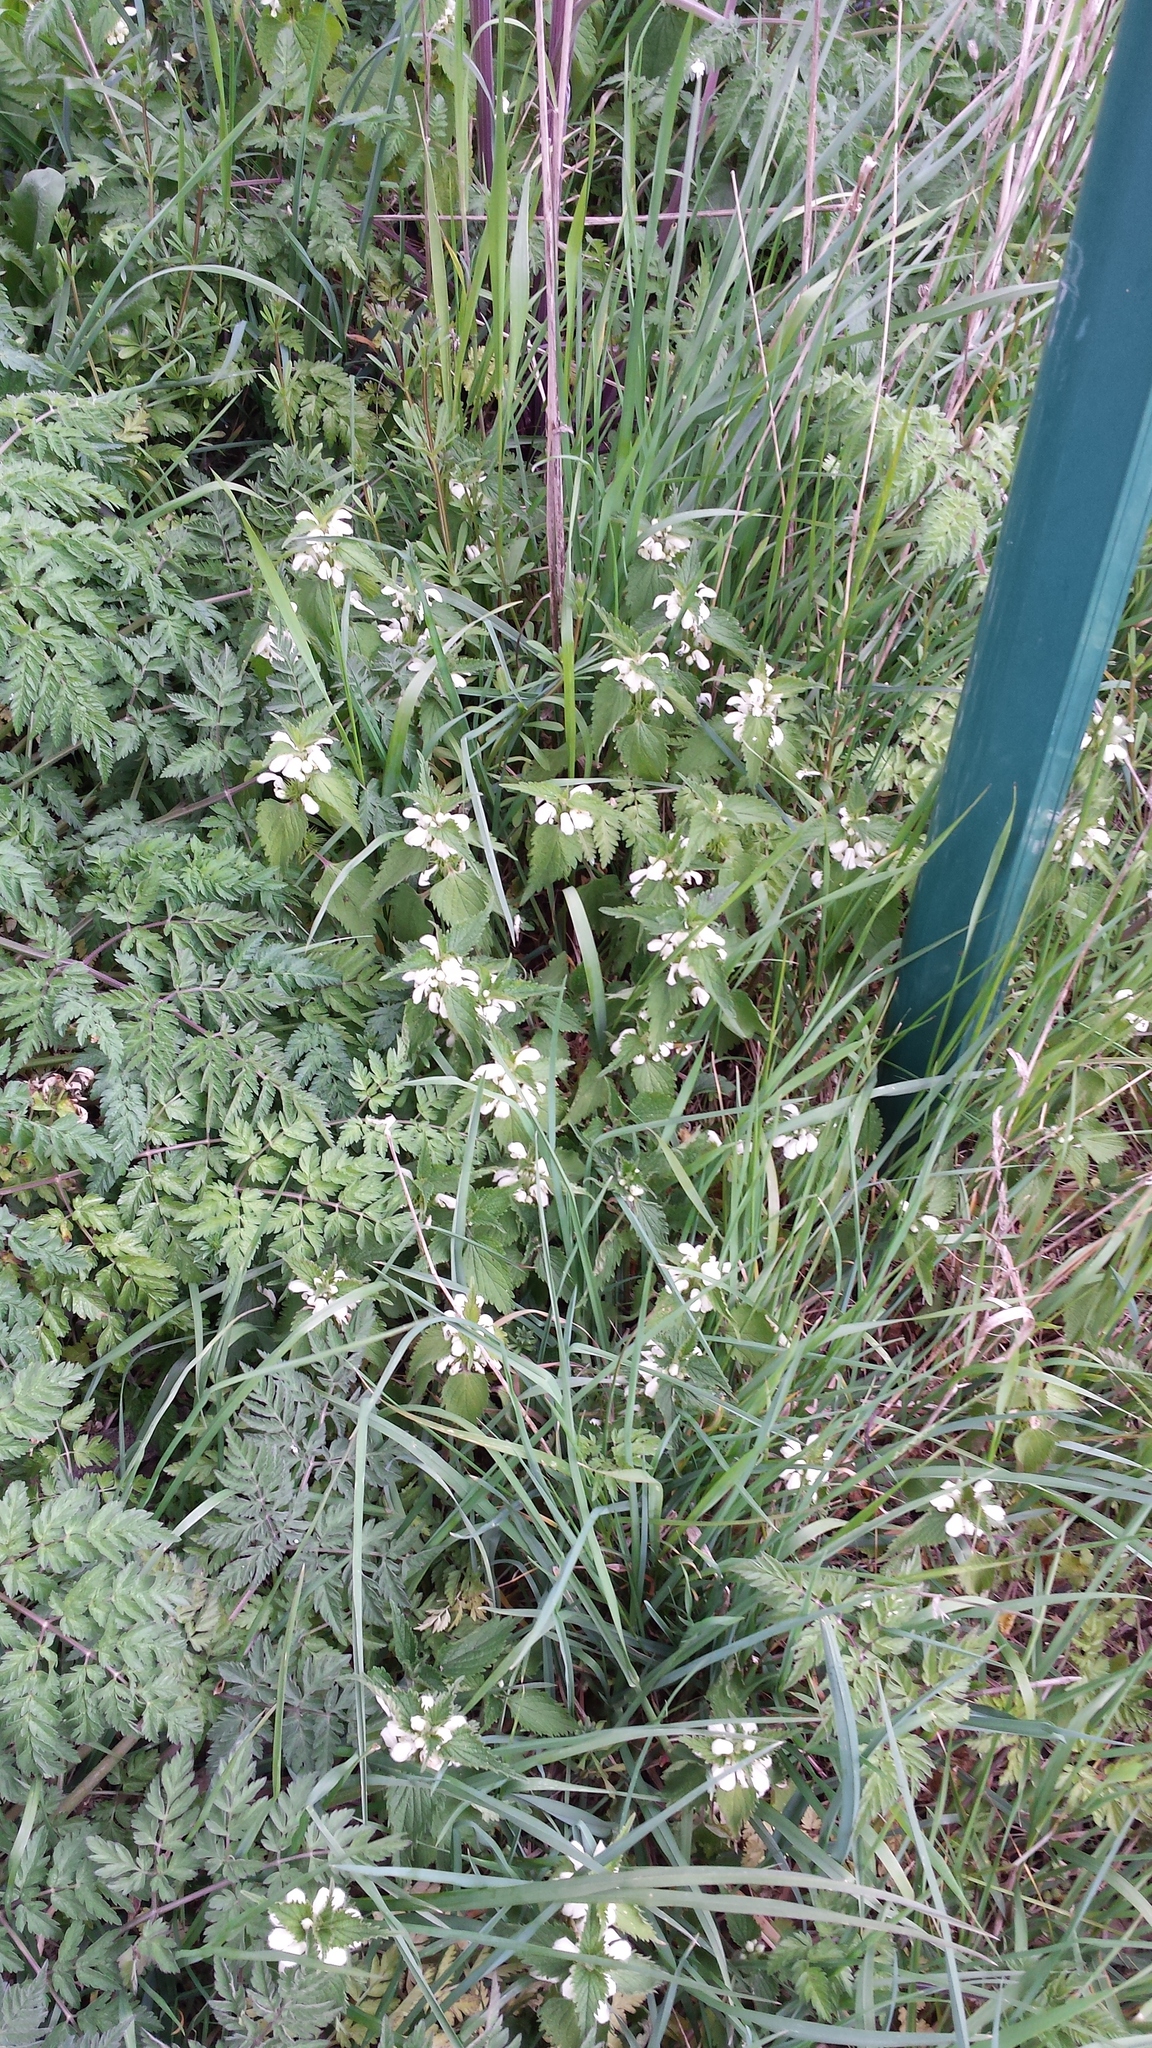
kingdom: Plantae
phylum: Tracheophyta
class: Magnoliopsida
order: Lamiales
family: Lamiaceae
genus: Lamium
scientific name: Lamium album
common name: White dead-nettle
